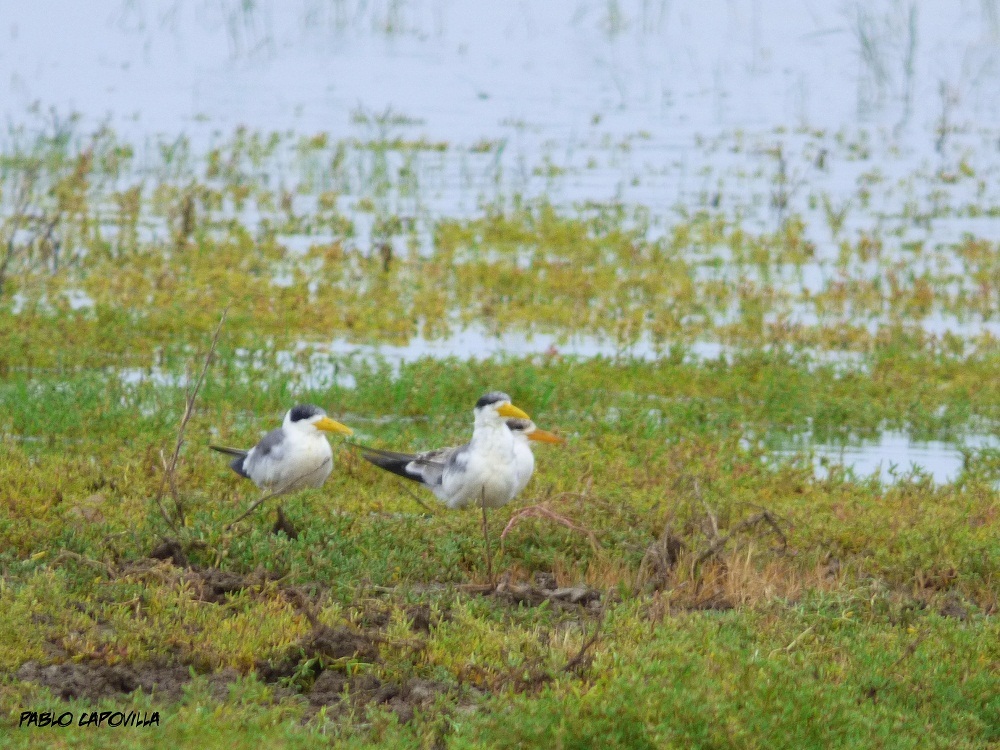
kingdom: Animalia
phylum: Chordata
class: Aves
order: Charadriiformes
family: Laridae
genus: Phaetusa
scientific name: Phaetusa simplex
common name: Large-billed tern
